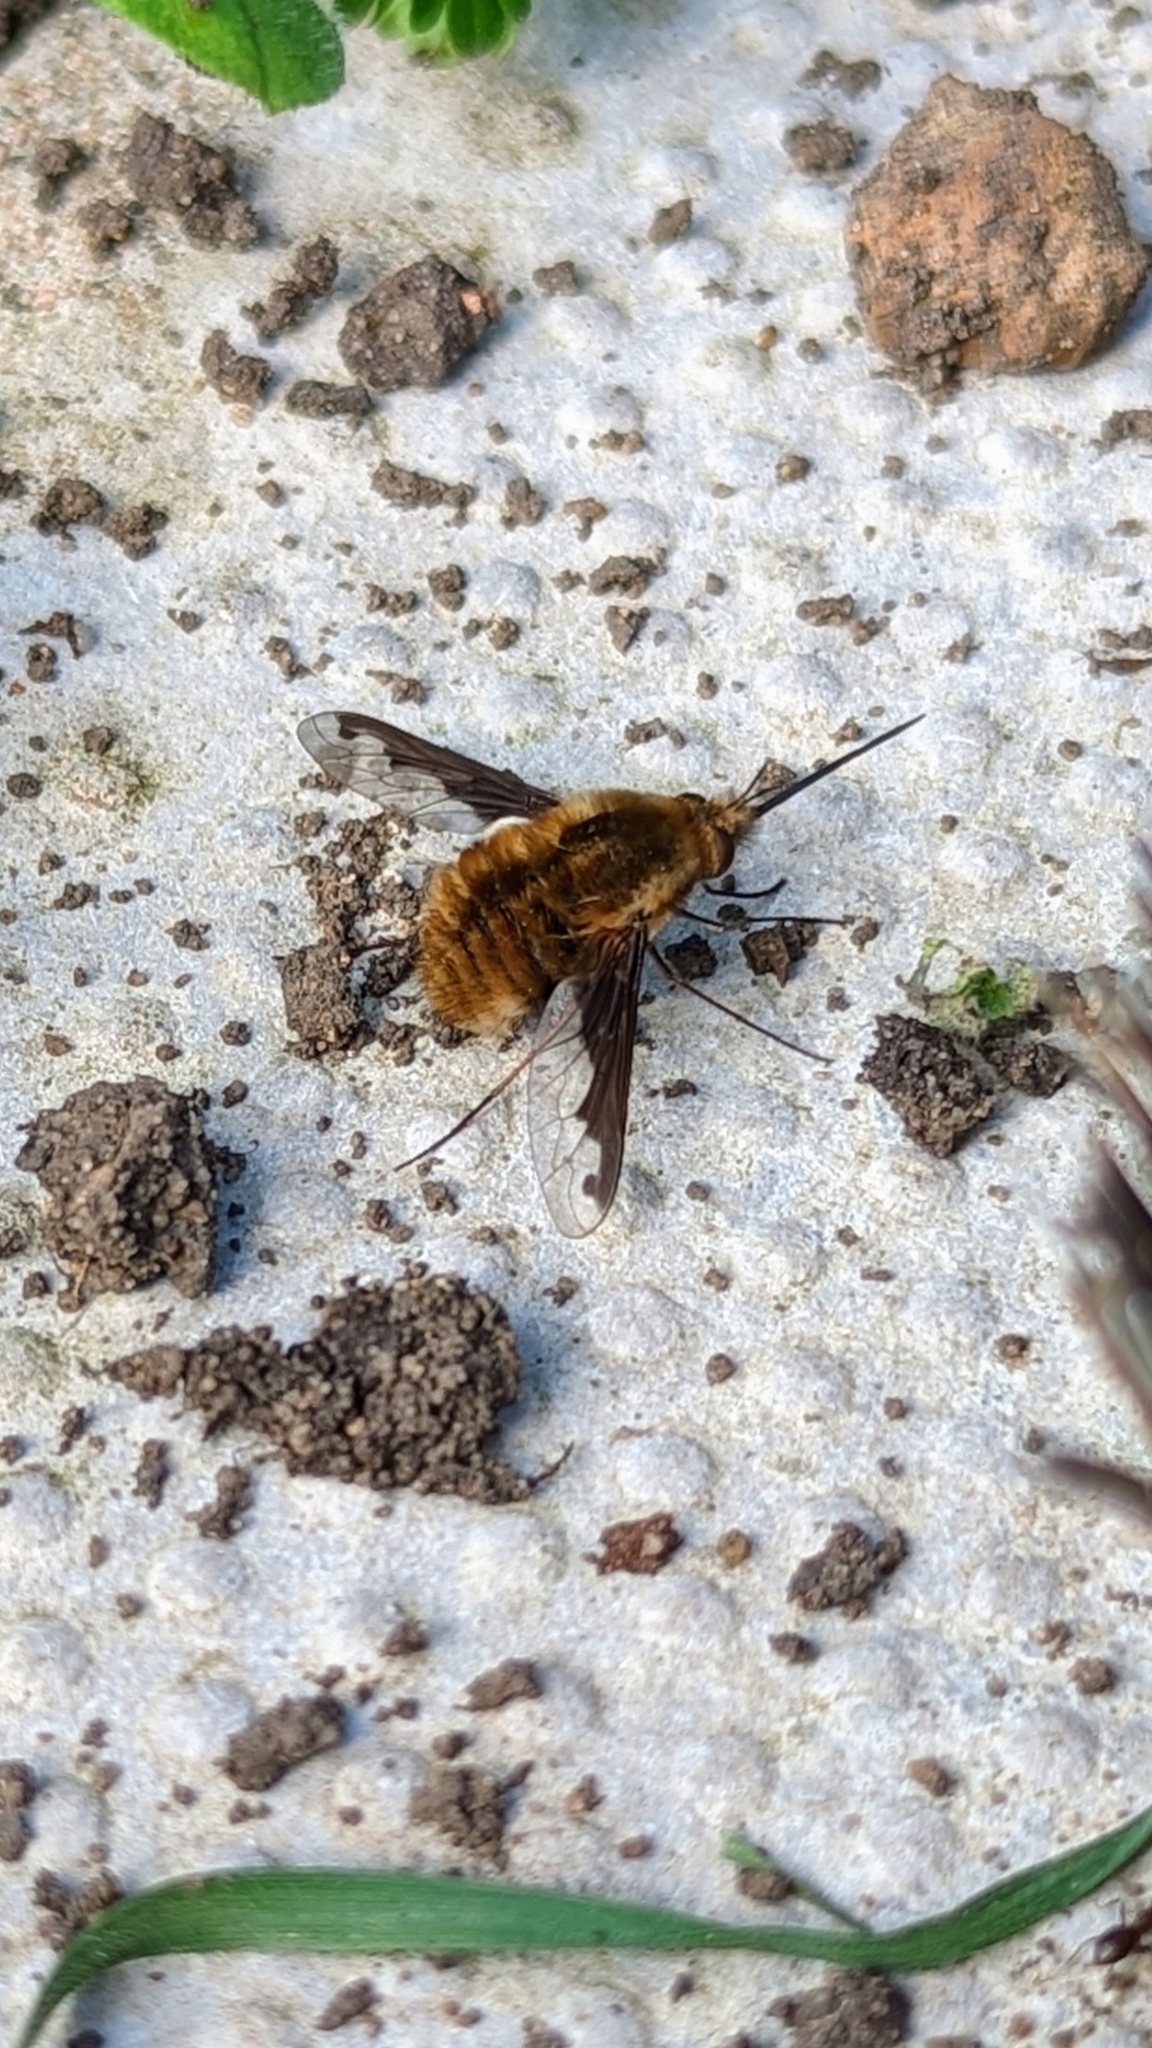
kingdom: Animalia
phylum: Arthropoda
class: Insecta
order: Diptera
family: Bombyliidae
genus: Bombylius
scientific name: Bombylius major
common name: Bee fly
